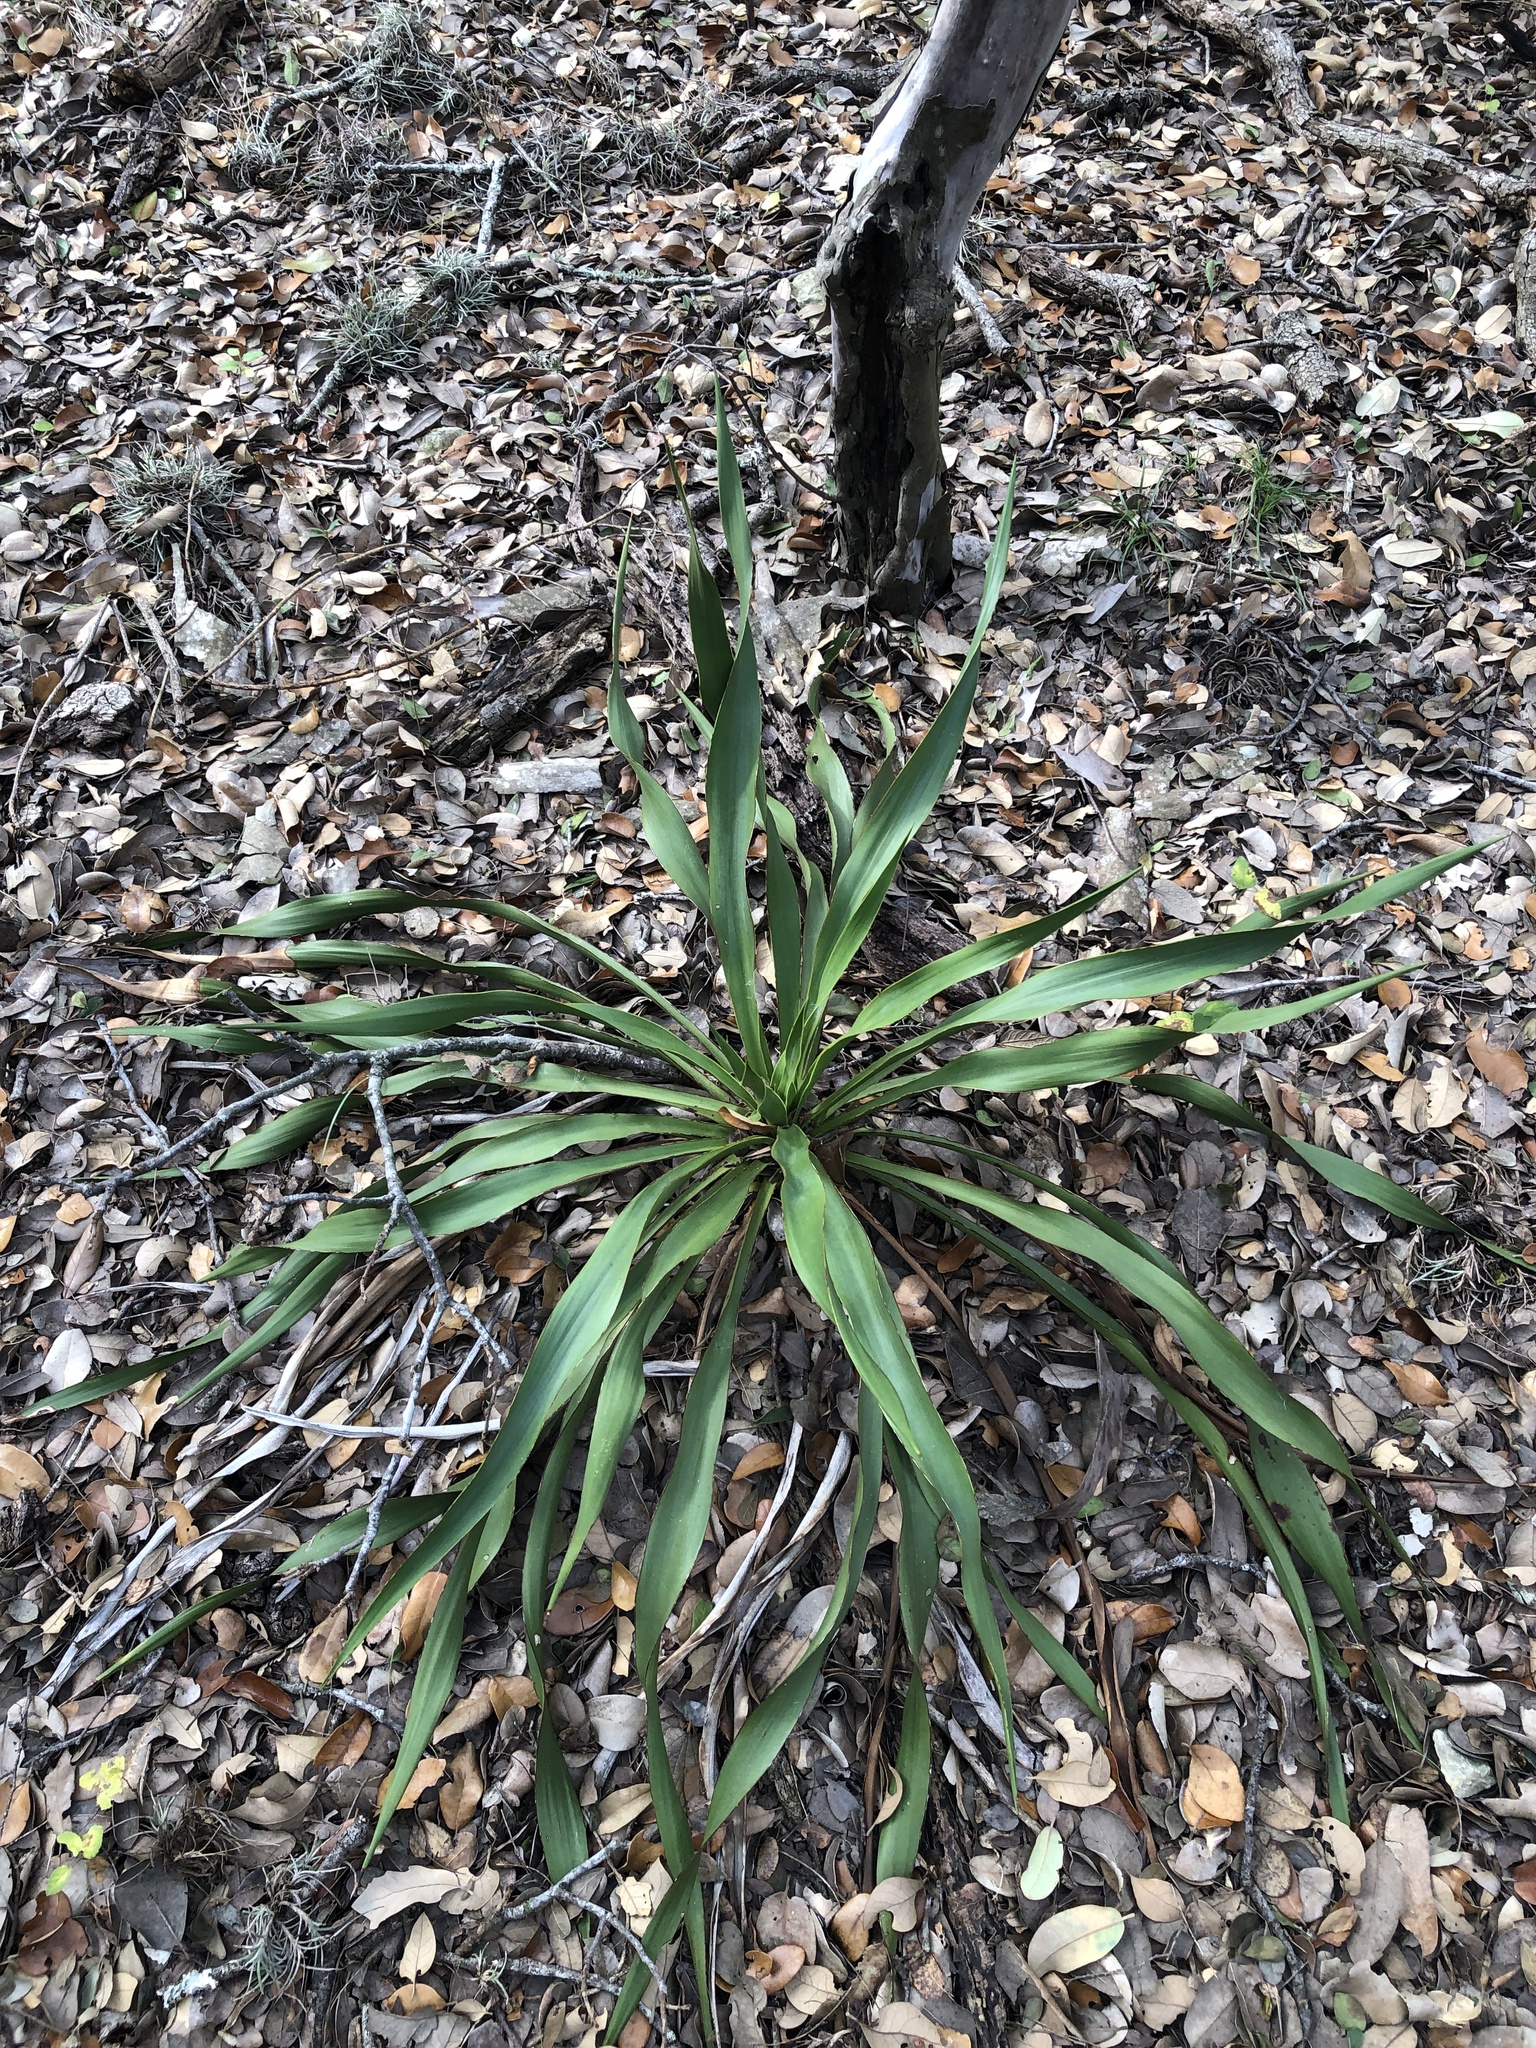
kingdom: Plantae
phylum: Tracheophyta
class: Liliopsida
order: Asparagales
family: Asparagaceae
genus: Yucca
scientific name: Yucca rupicola
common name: Twisted-leaf spanish-dagger
